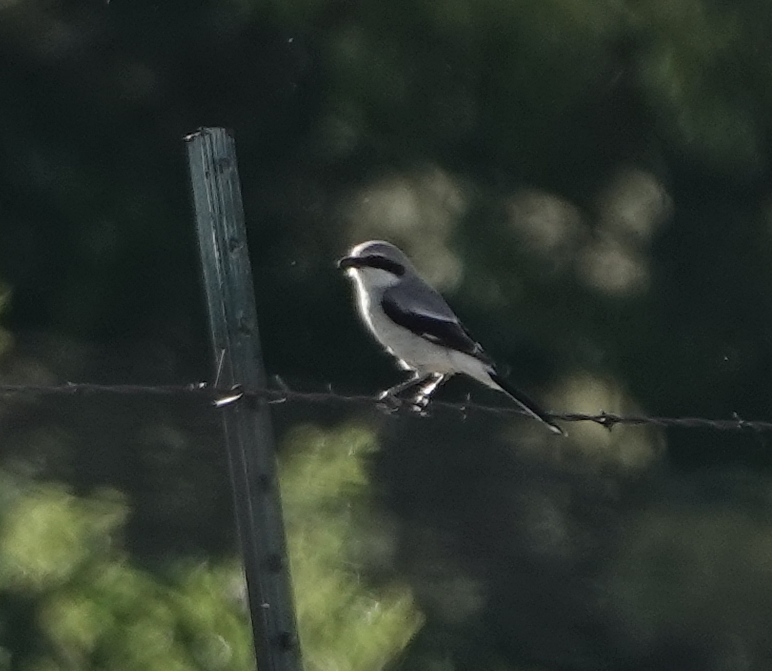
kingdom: Animalia
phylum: Chordata
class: Aves
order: Passeriformes
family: Laniidae
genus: Lanius
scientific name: Lanius ludovicianus
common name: Loggerhead shrike
